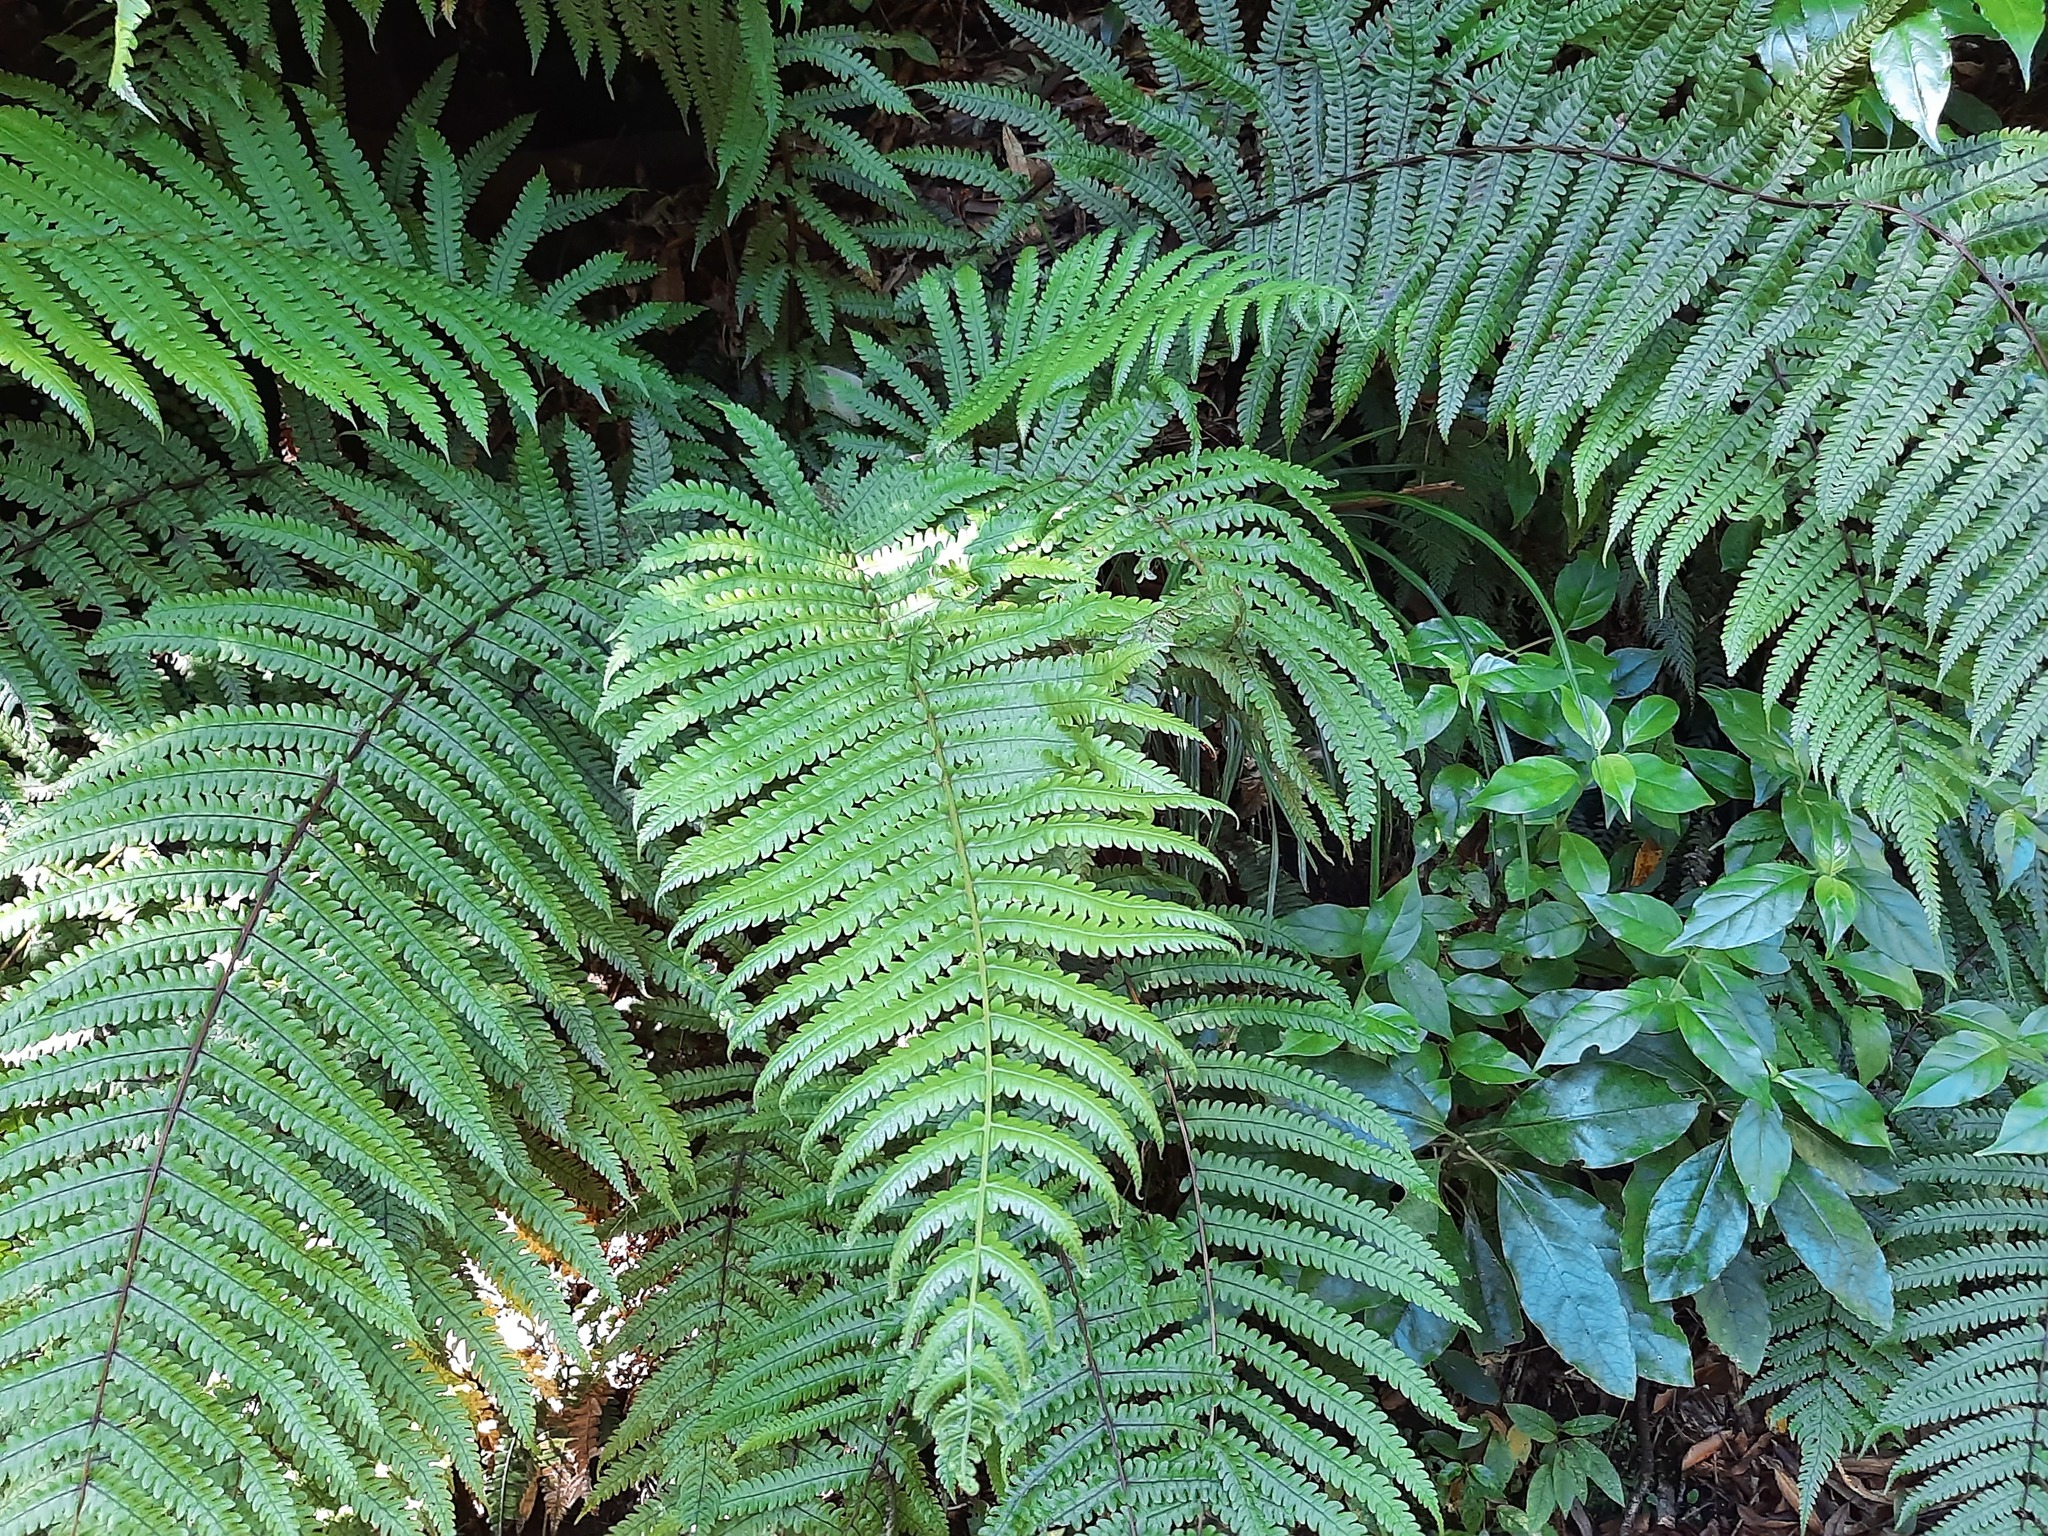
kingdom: Plantae
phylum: Tracheophyta
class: Polypodiopsida
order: Polypodiales
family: Thelypteridaceae
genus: Pakau
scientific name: Pakau pennigera
